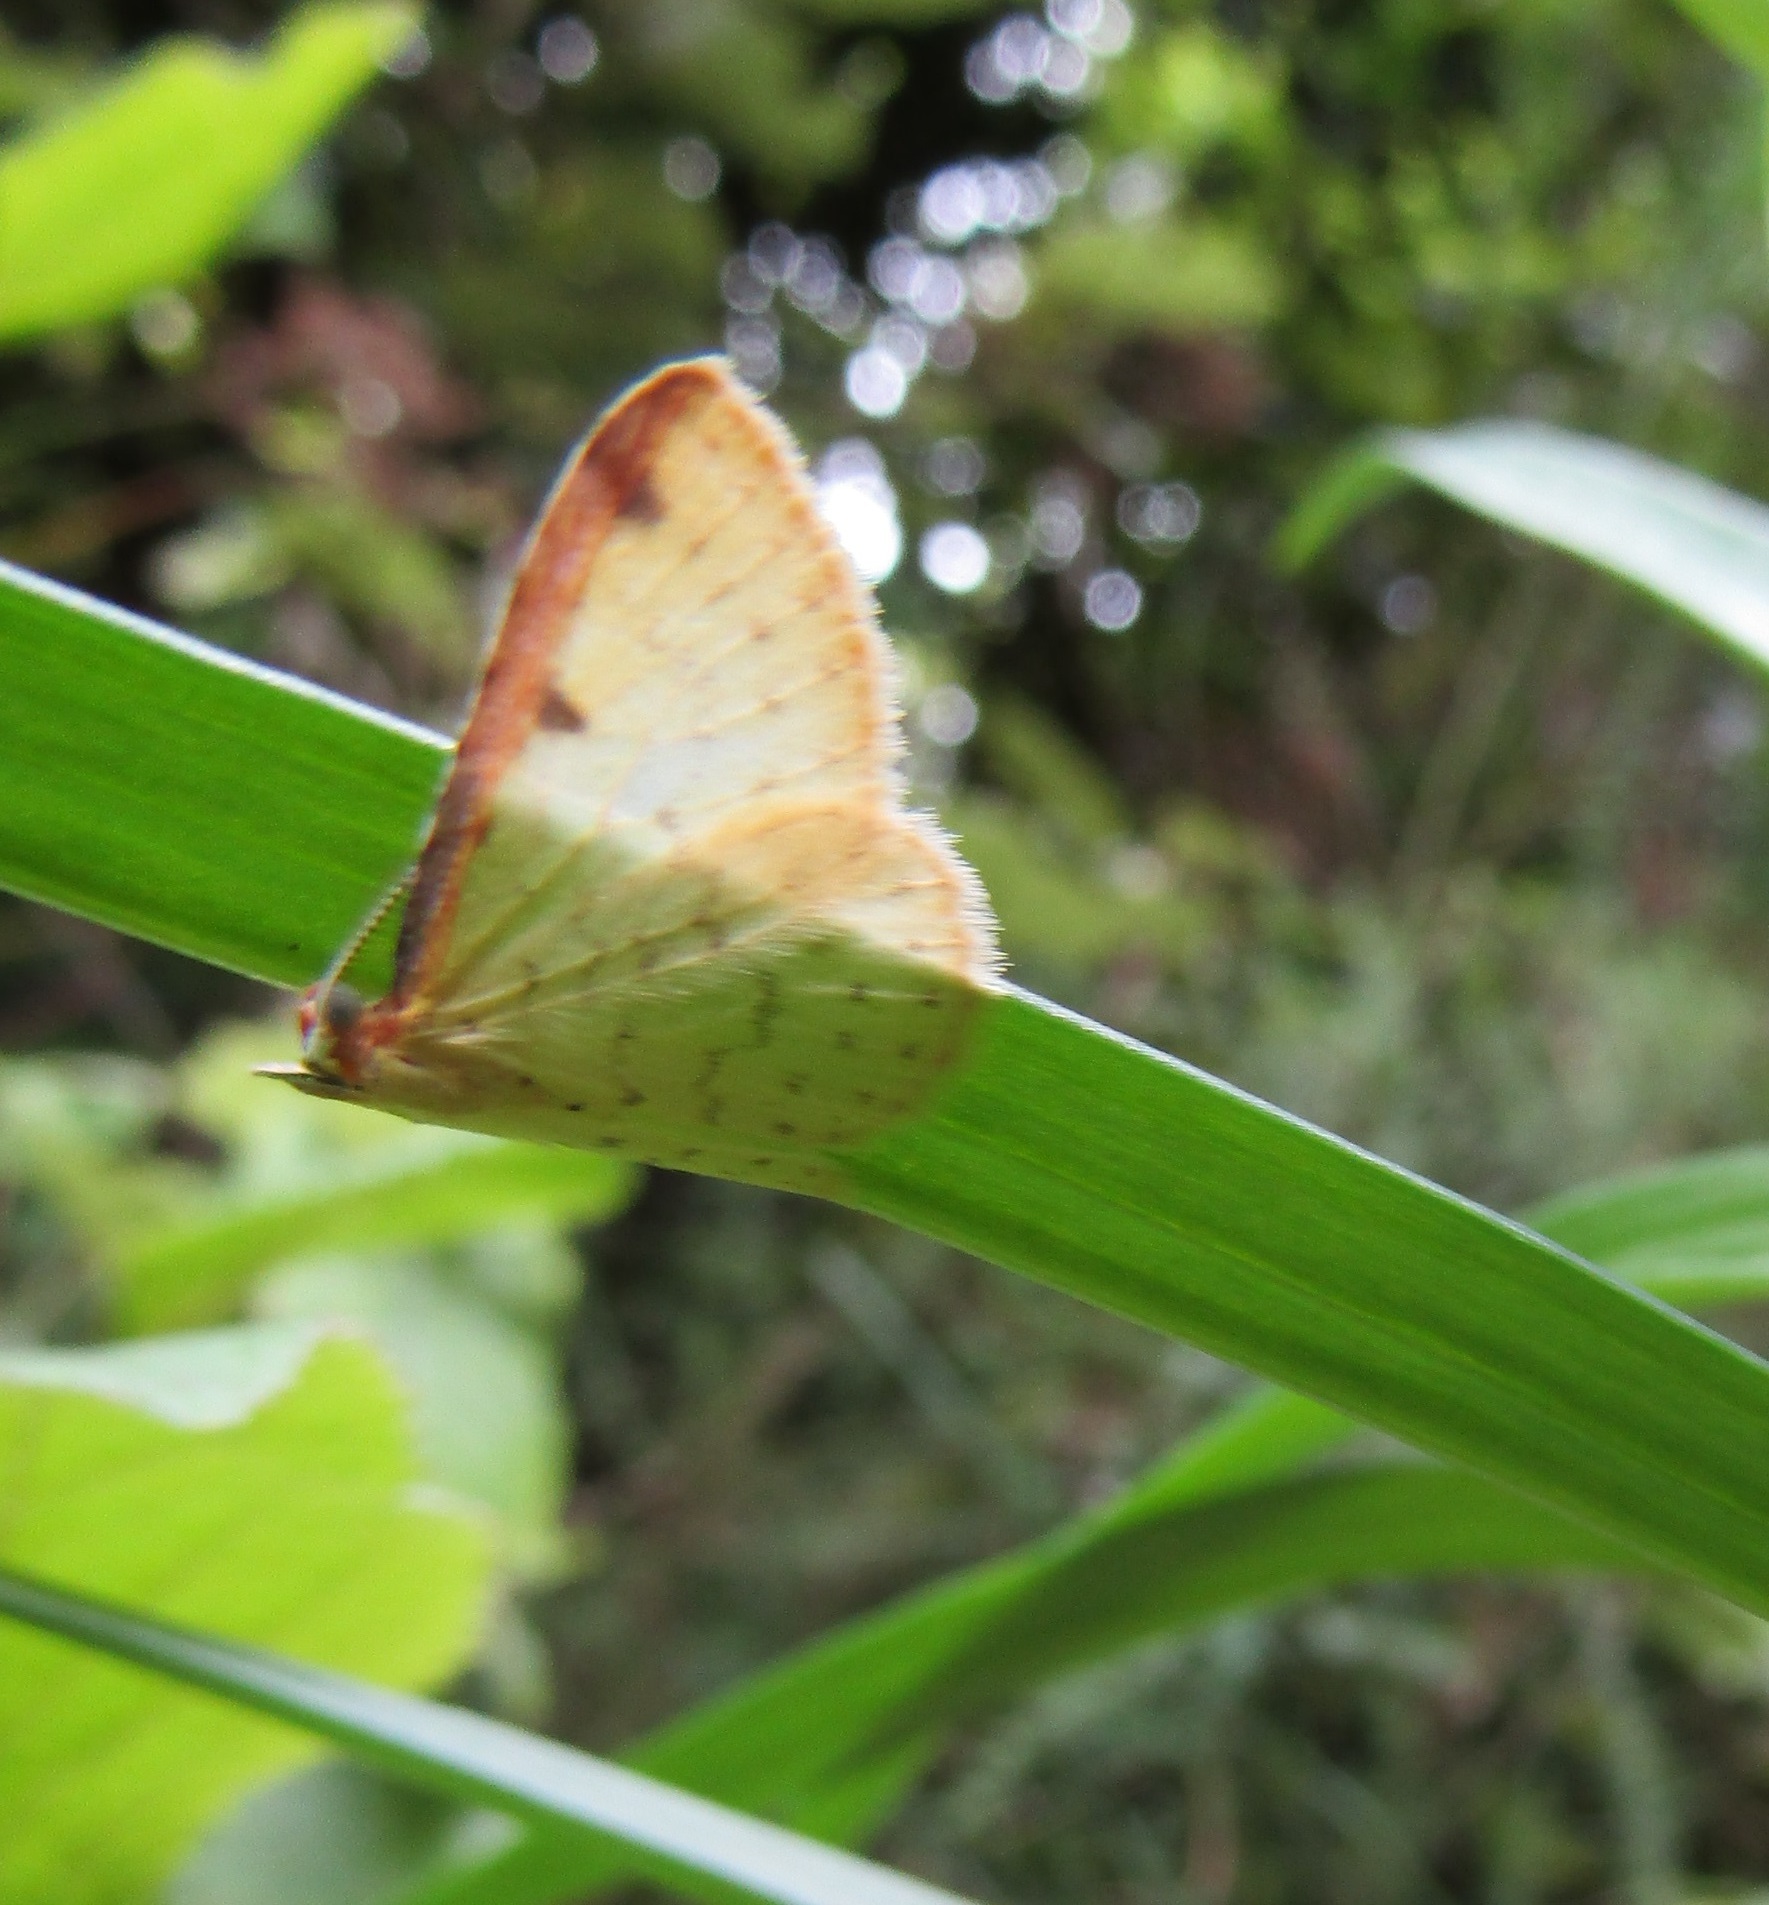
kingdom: Animalia
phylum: Arthropoda
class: Insecta
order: Lepidoptera
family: Geometridae
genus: Epiphryne
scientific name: Epiphryne undosata
